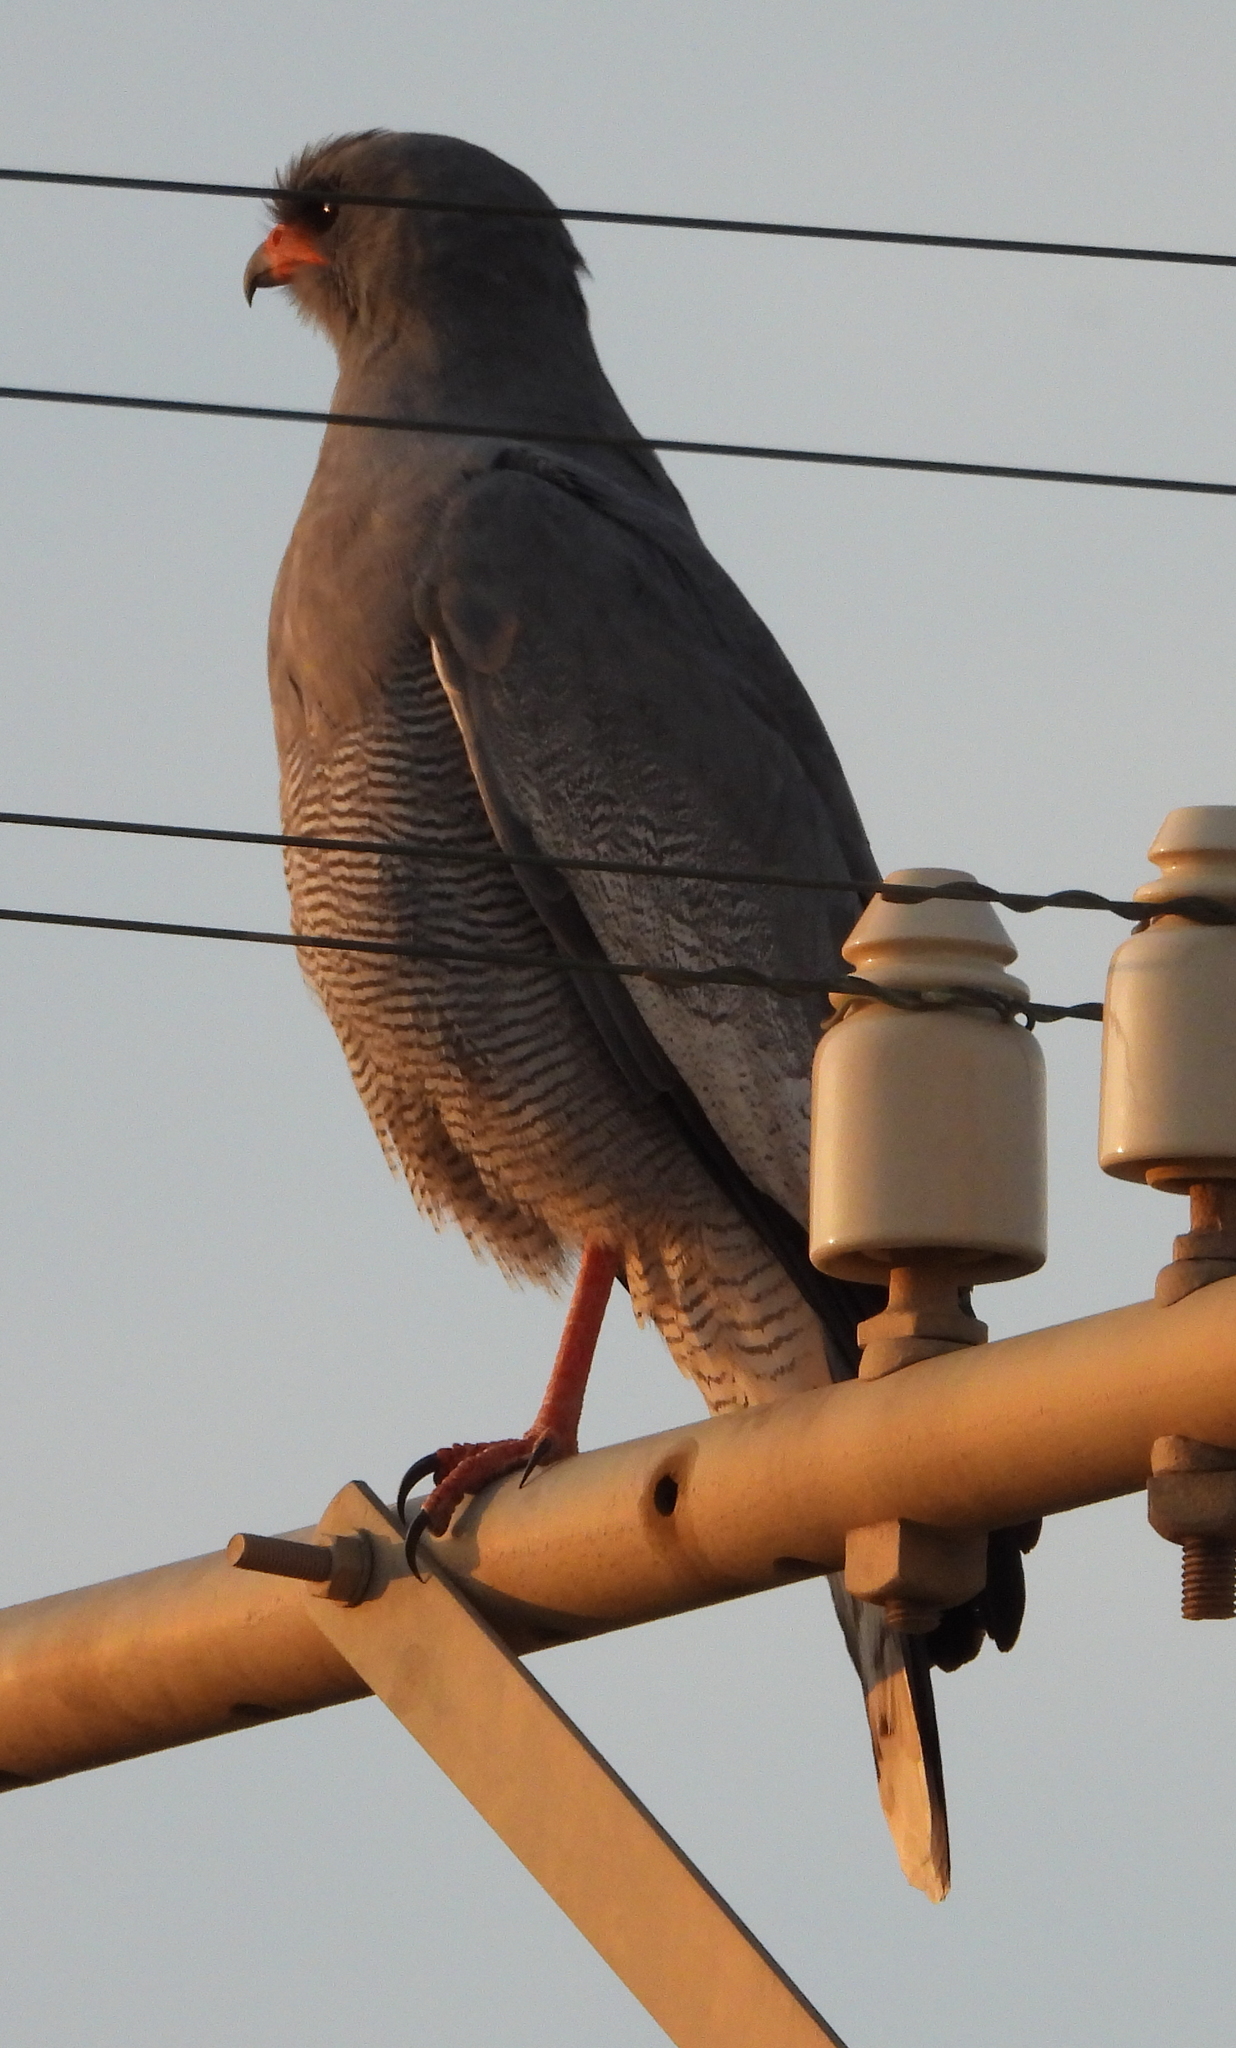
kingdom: Animalia
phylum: Chordata
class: Aves
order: Accipitriformes
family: Accipitridae
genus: Melierax
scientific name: Melierax canorus
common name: Pale chanting-goshawk
